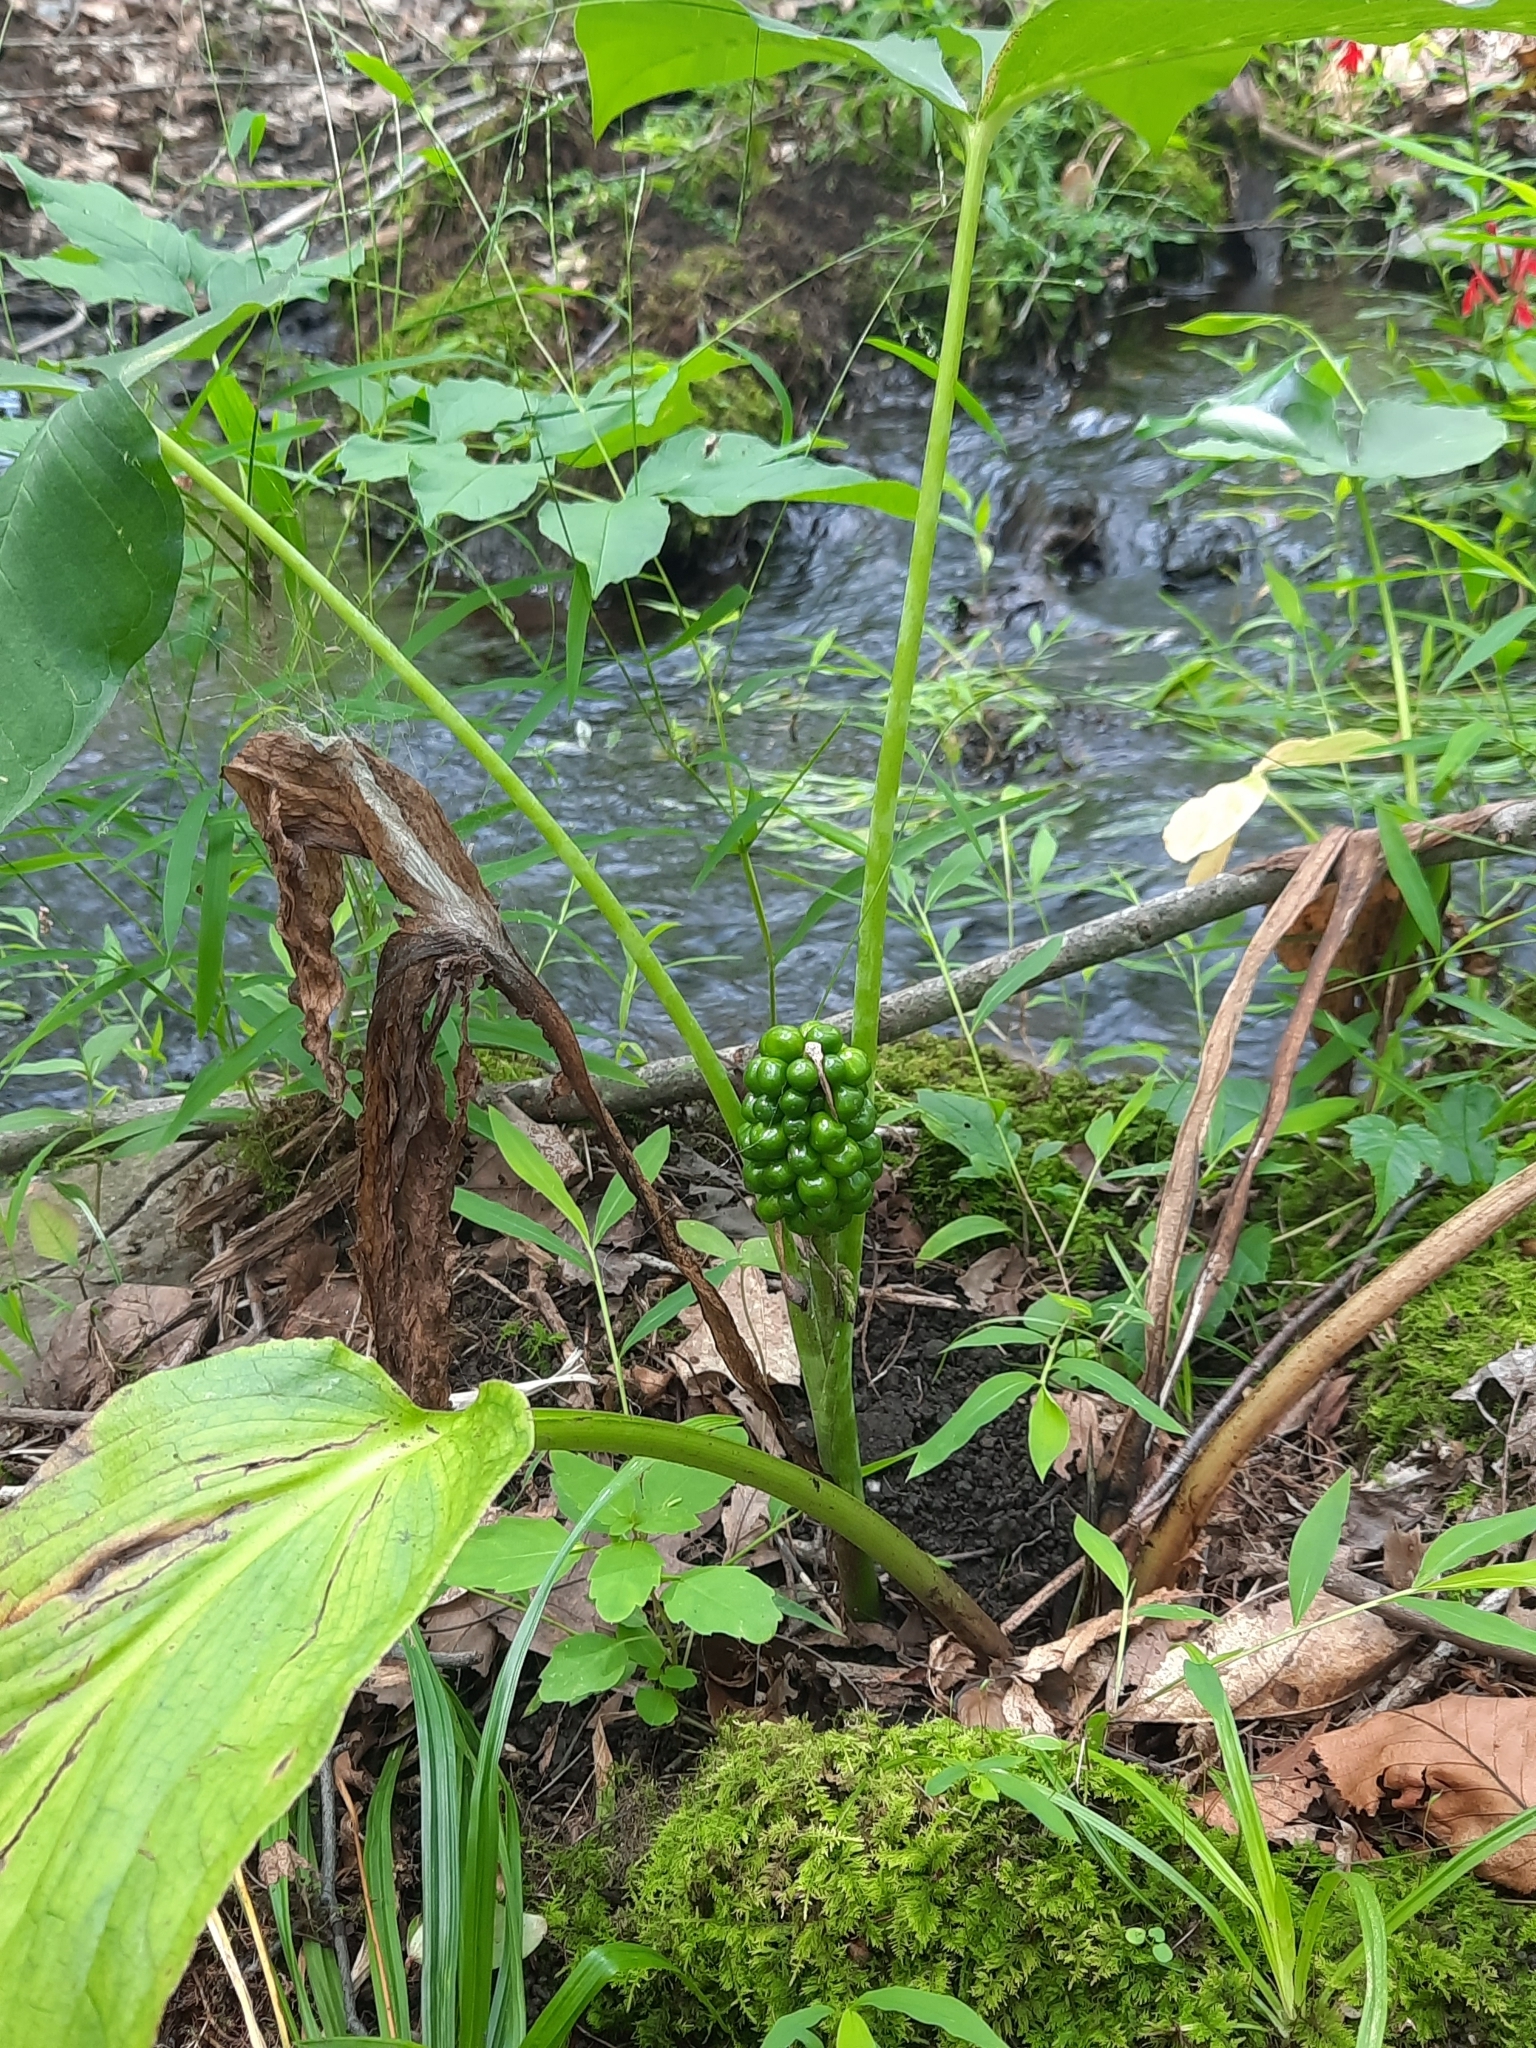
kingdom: Plantae
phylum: Tracheophyta
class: Liliopsida
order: Alismatales
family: Araceae
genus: Arisaema
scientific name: Arisaema triphyllum
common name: Jack-in-the-pulpit
